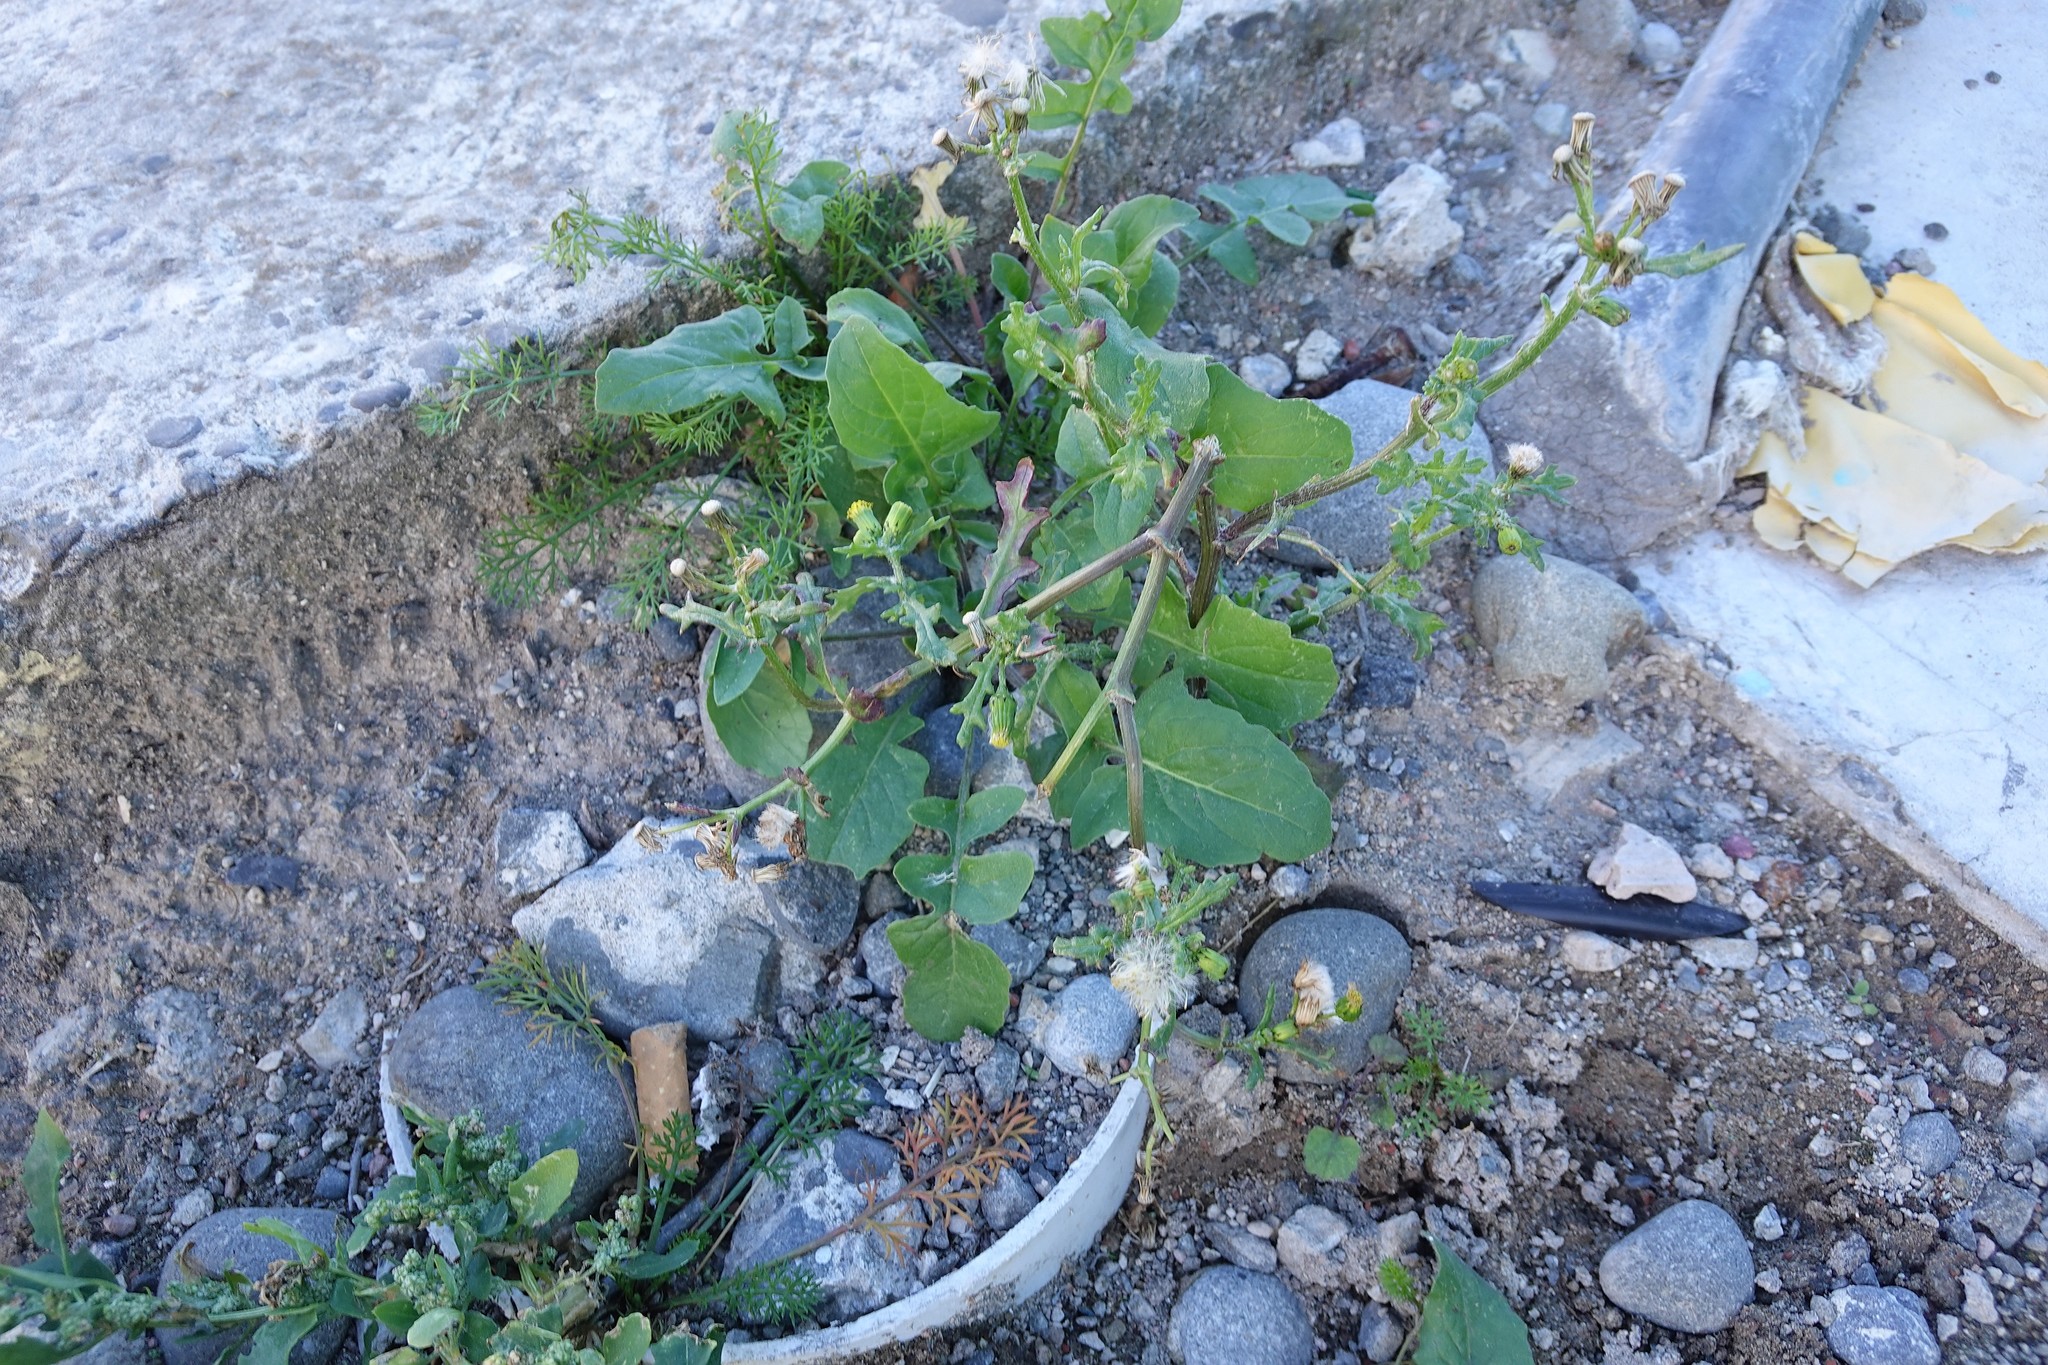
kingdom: Plantae
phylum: Tracheophyta
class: Magnoliopsida
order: Asterales
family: Asteraceae
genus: Senecio
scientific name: Senecio vulgaris
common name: Old-man-in-the-spring
